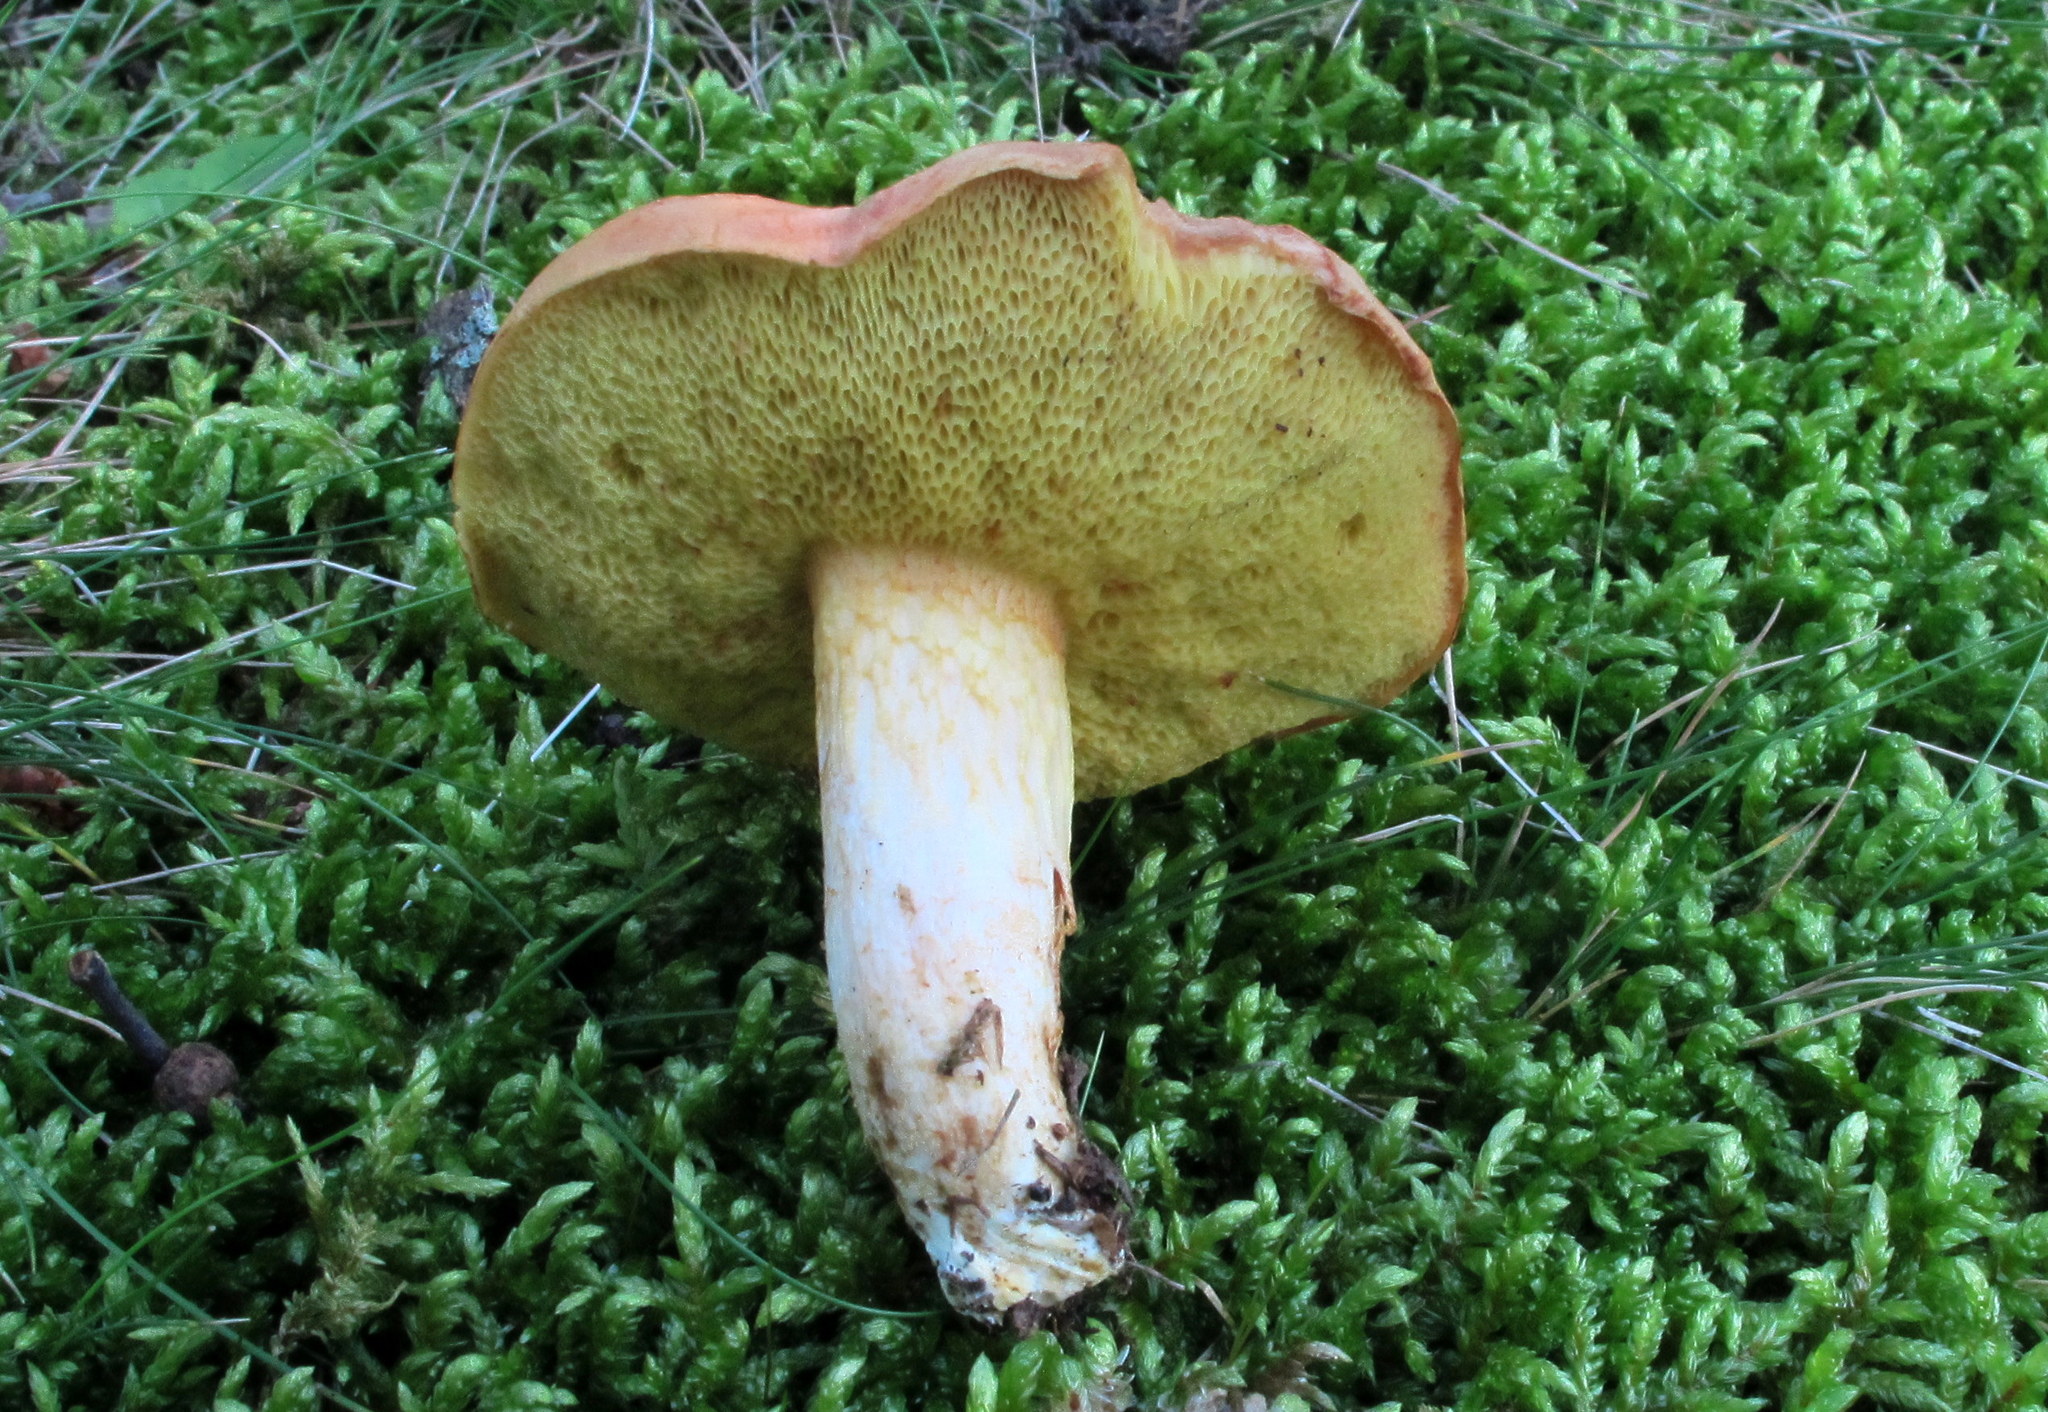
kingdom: Fungi
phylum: Basidiomycota
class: Agaricomycetes
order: Boletales
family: Boletaceae
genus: Xerocomus
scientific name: Xerocomus illudens
